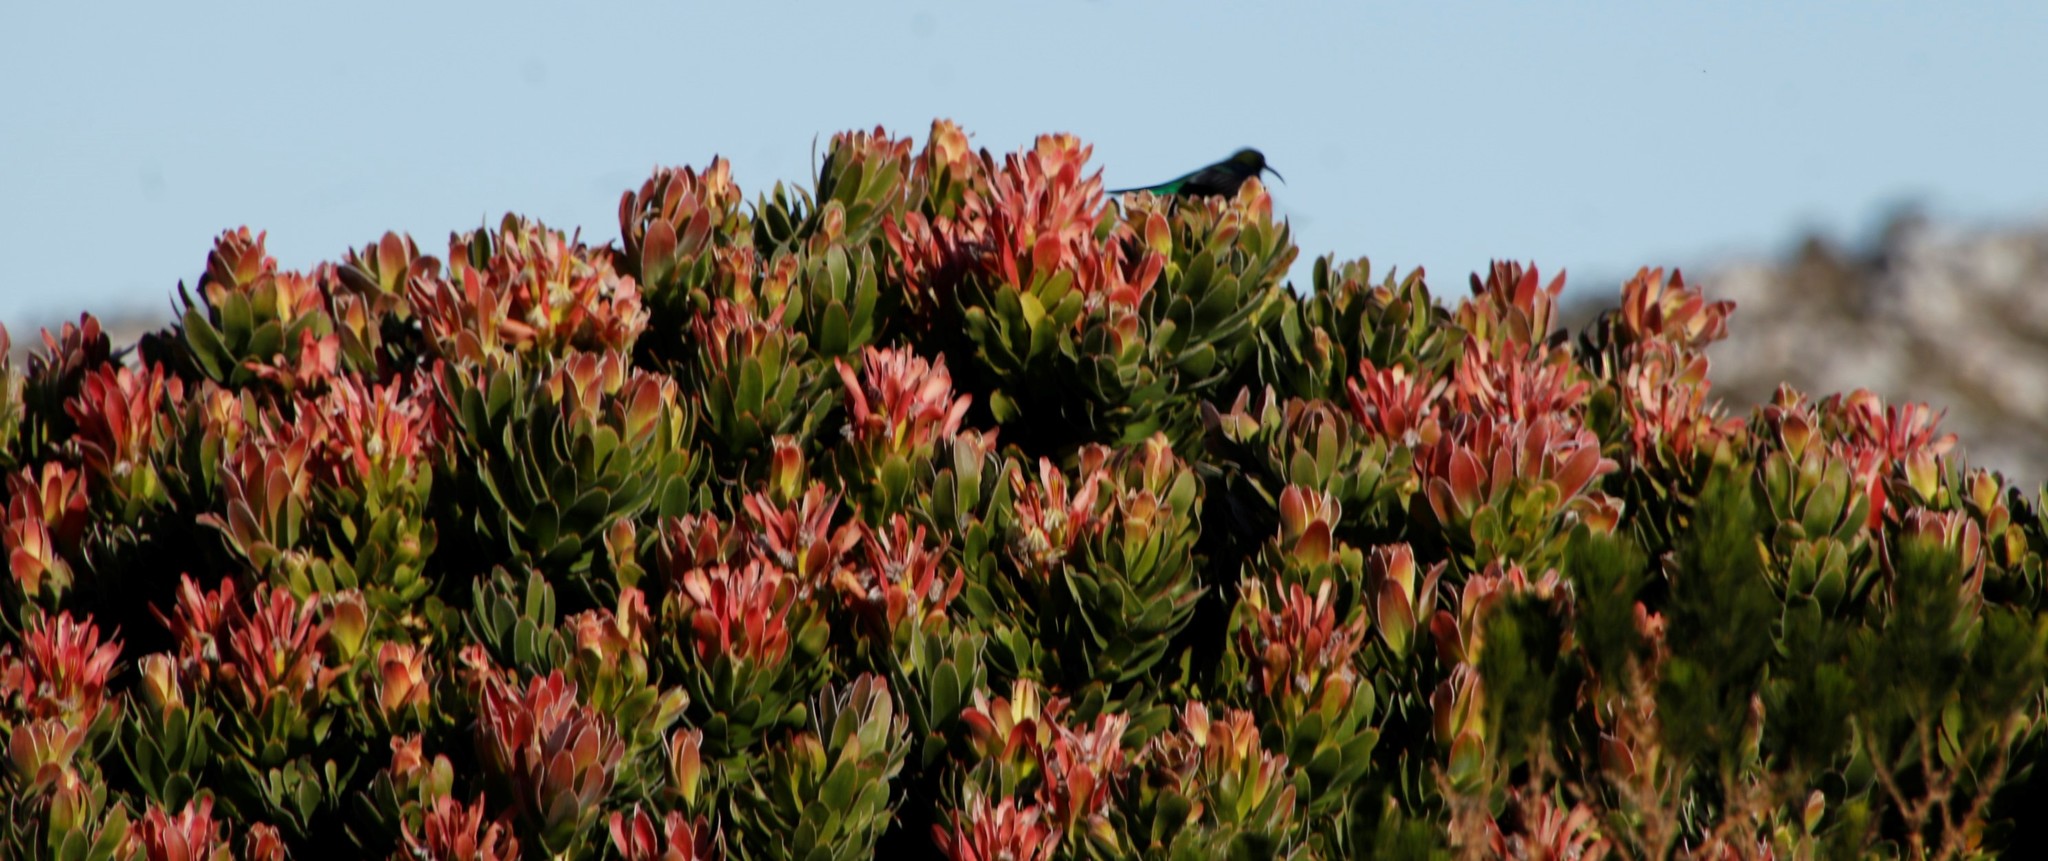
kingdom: Animalia
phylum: Chordata
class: Aves
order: Passeriformes
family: Nectariniidae
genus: Nectarinia
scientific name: Nectarinia famosa
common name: Malachite sunbird
